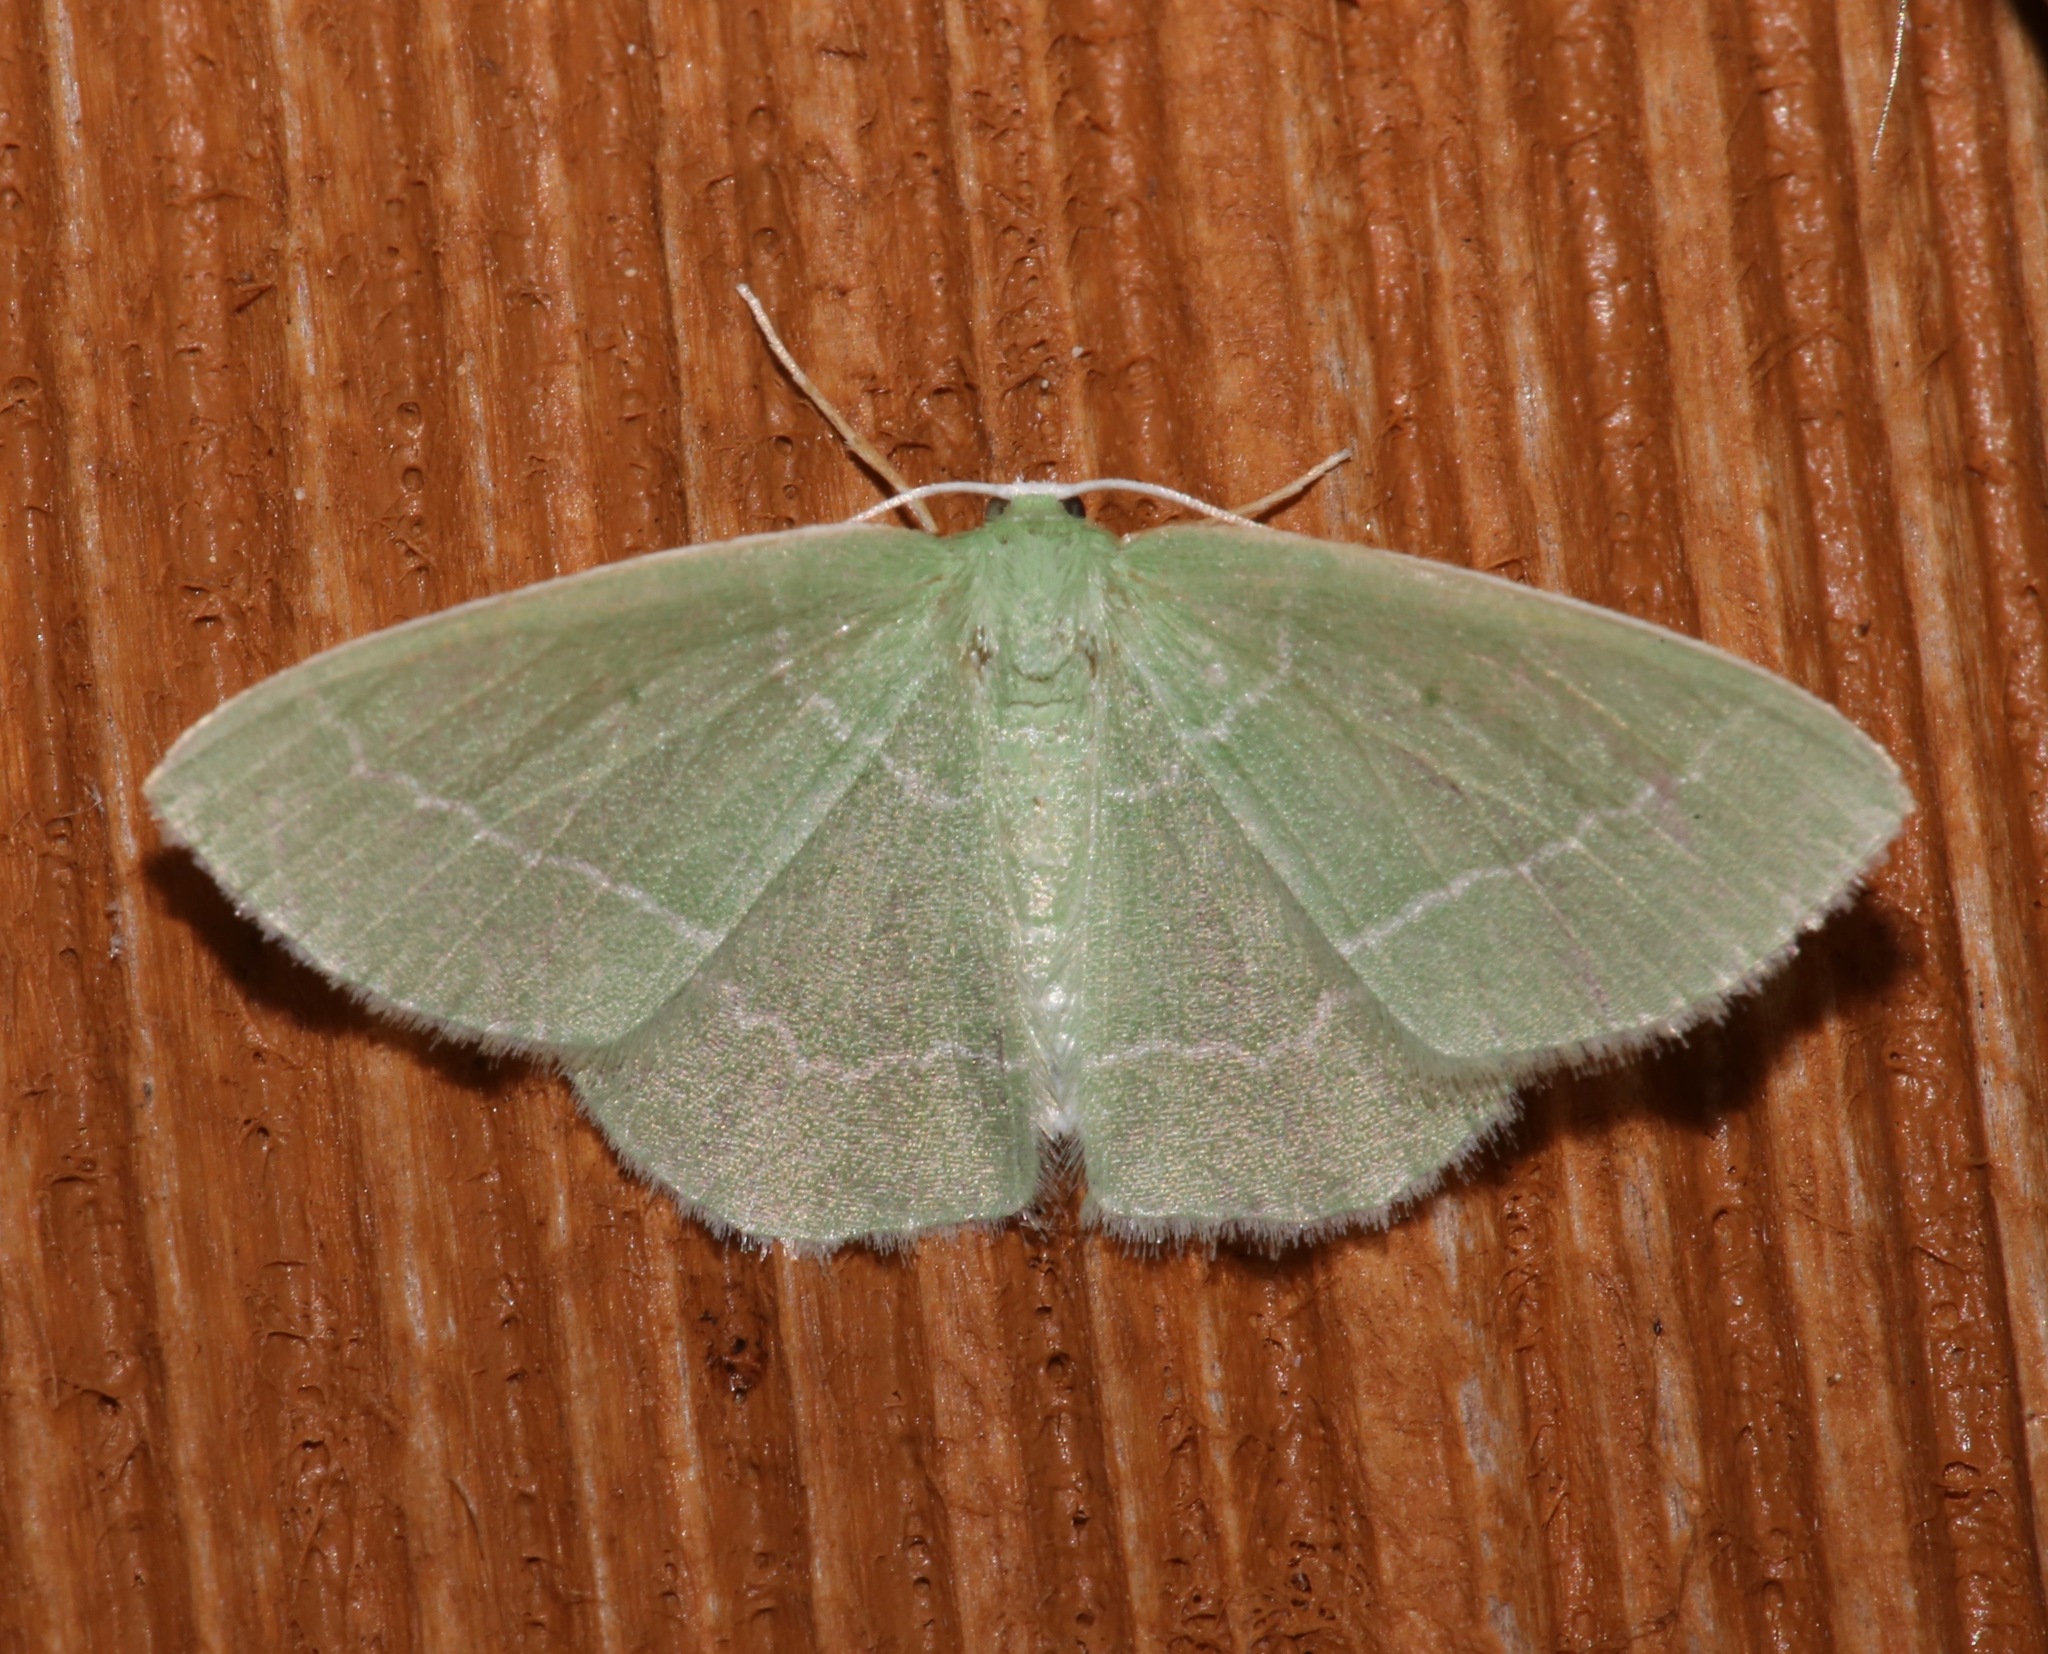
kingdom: Animalia
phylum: Arthropoda
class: Insecta
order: Lepidoptera
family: Geometridae
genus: Nemoria
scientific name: Nemoria elfa
